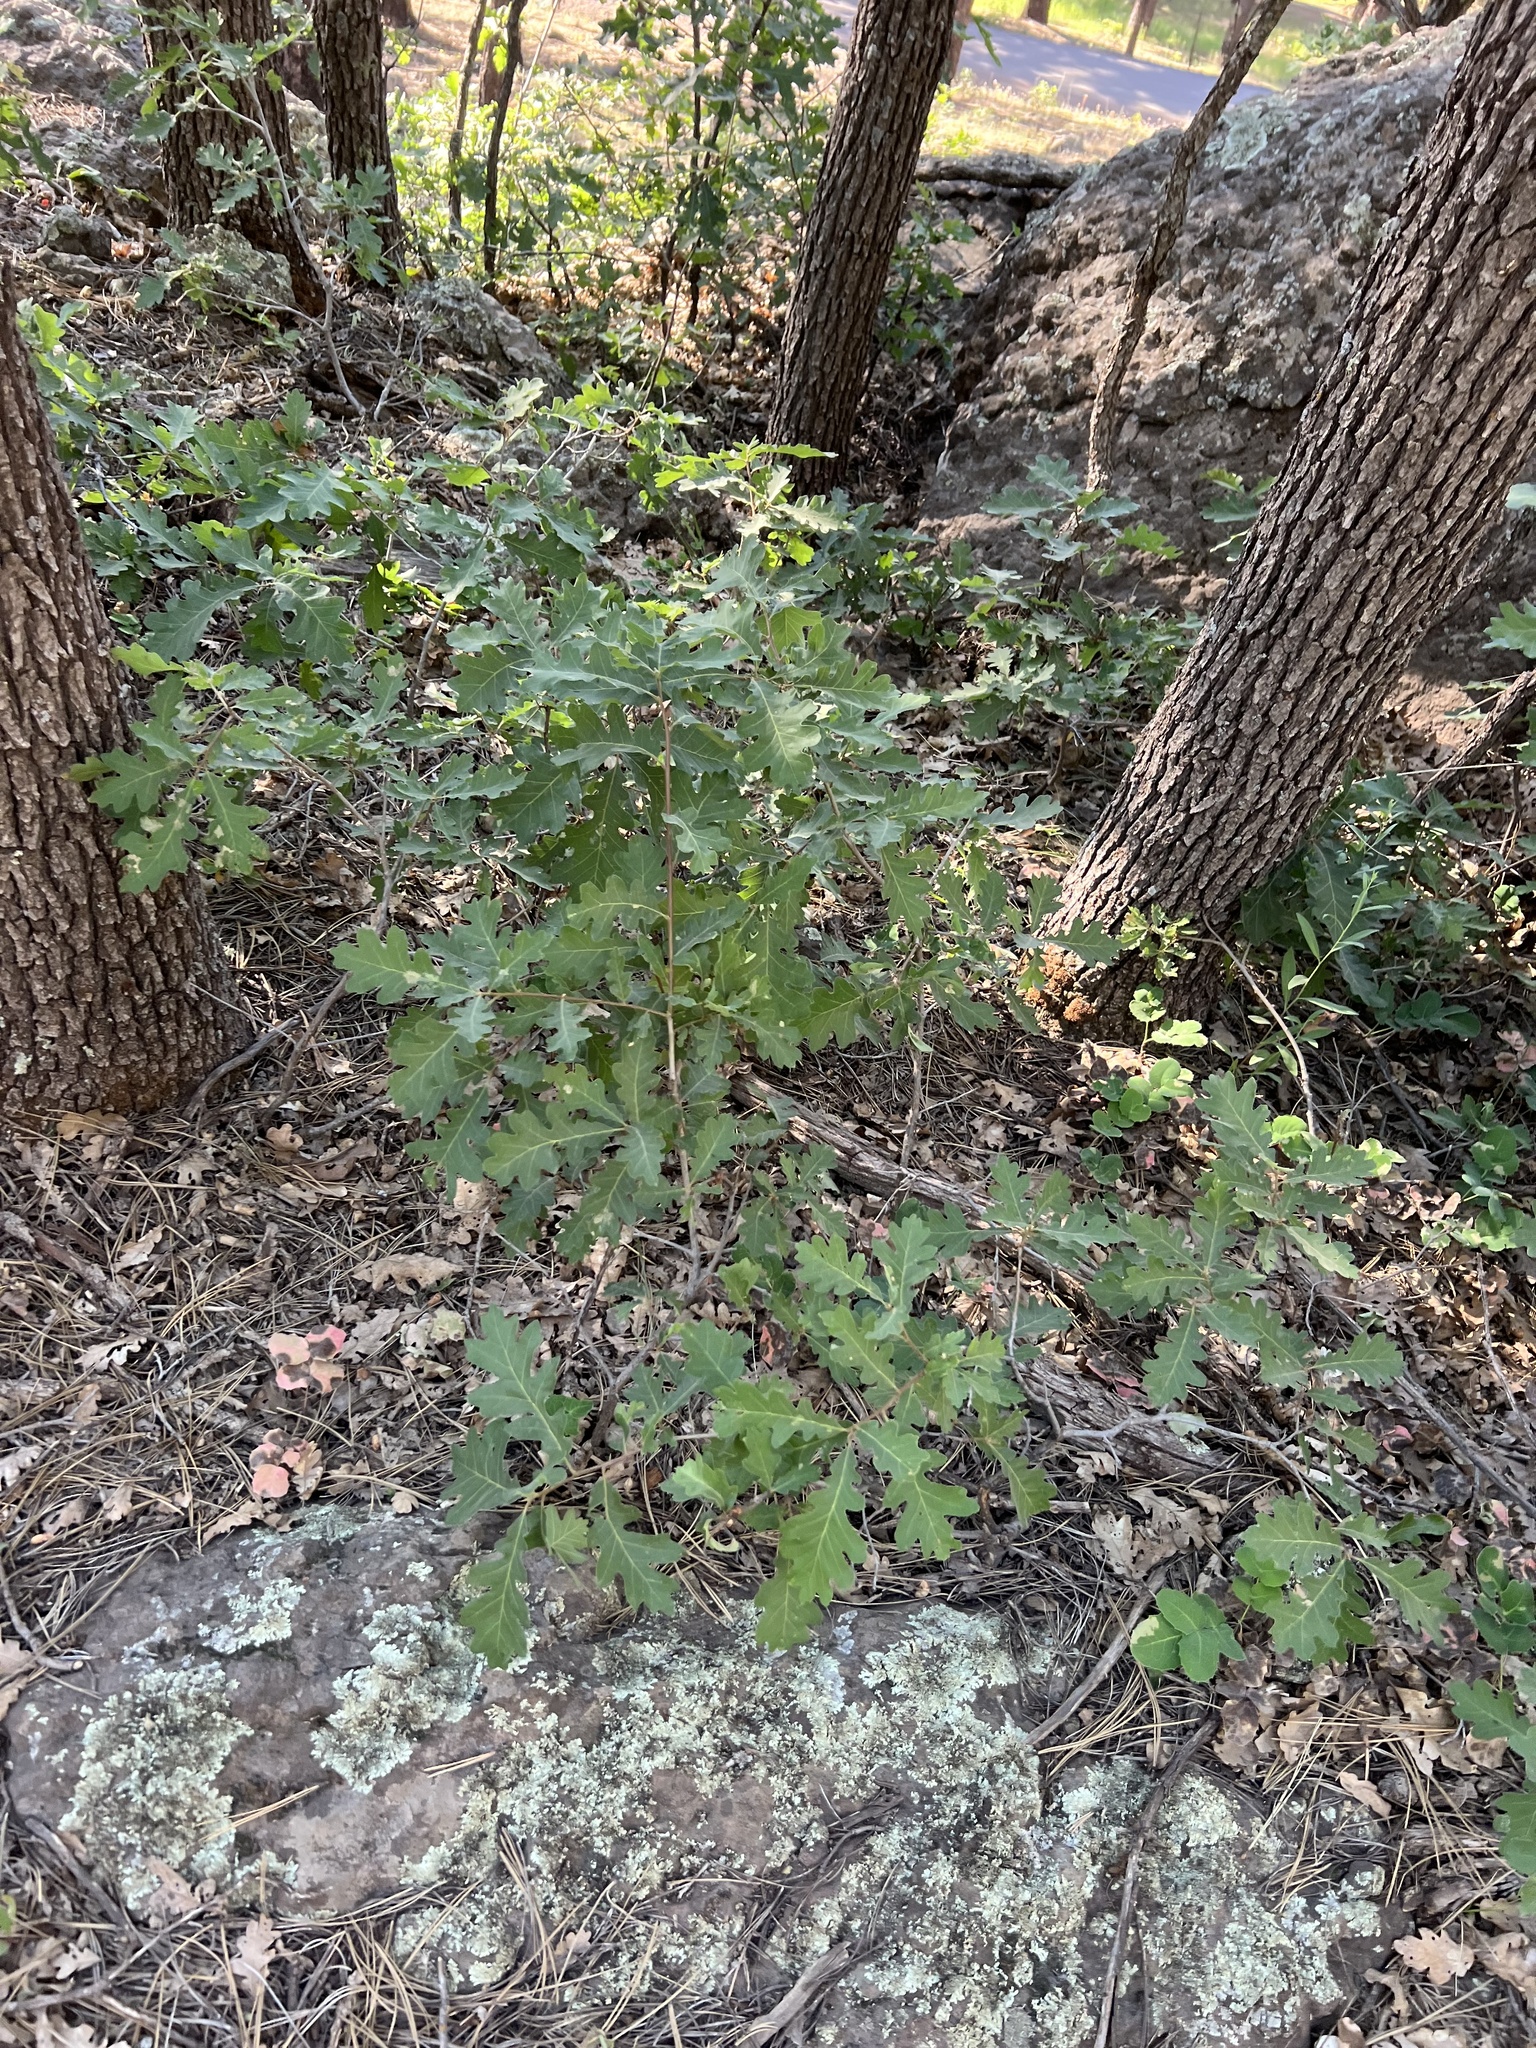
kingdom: Plantae
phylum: Tracheophyta
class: Magnoliopsida
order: Fagales
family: Fagaceae
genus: Quercus
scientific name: Quercus gambelii
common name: Gambel oak
